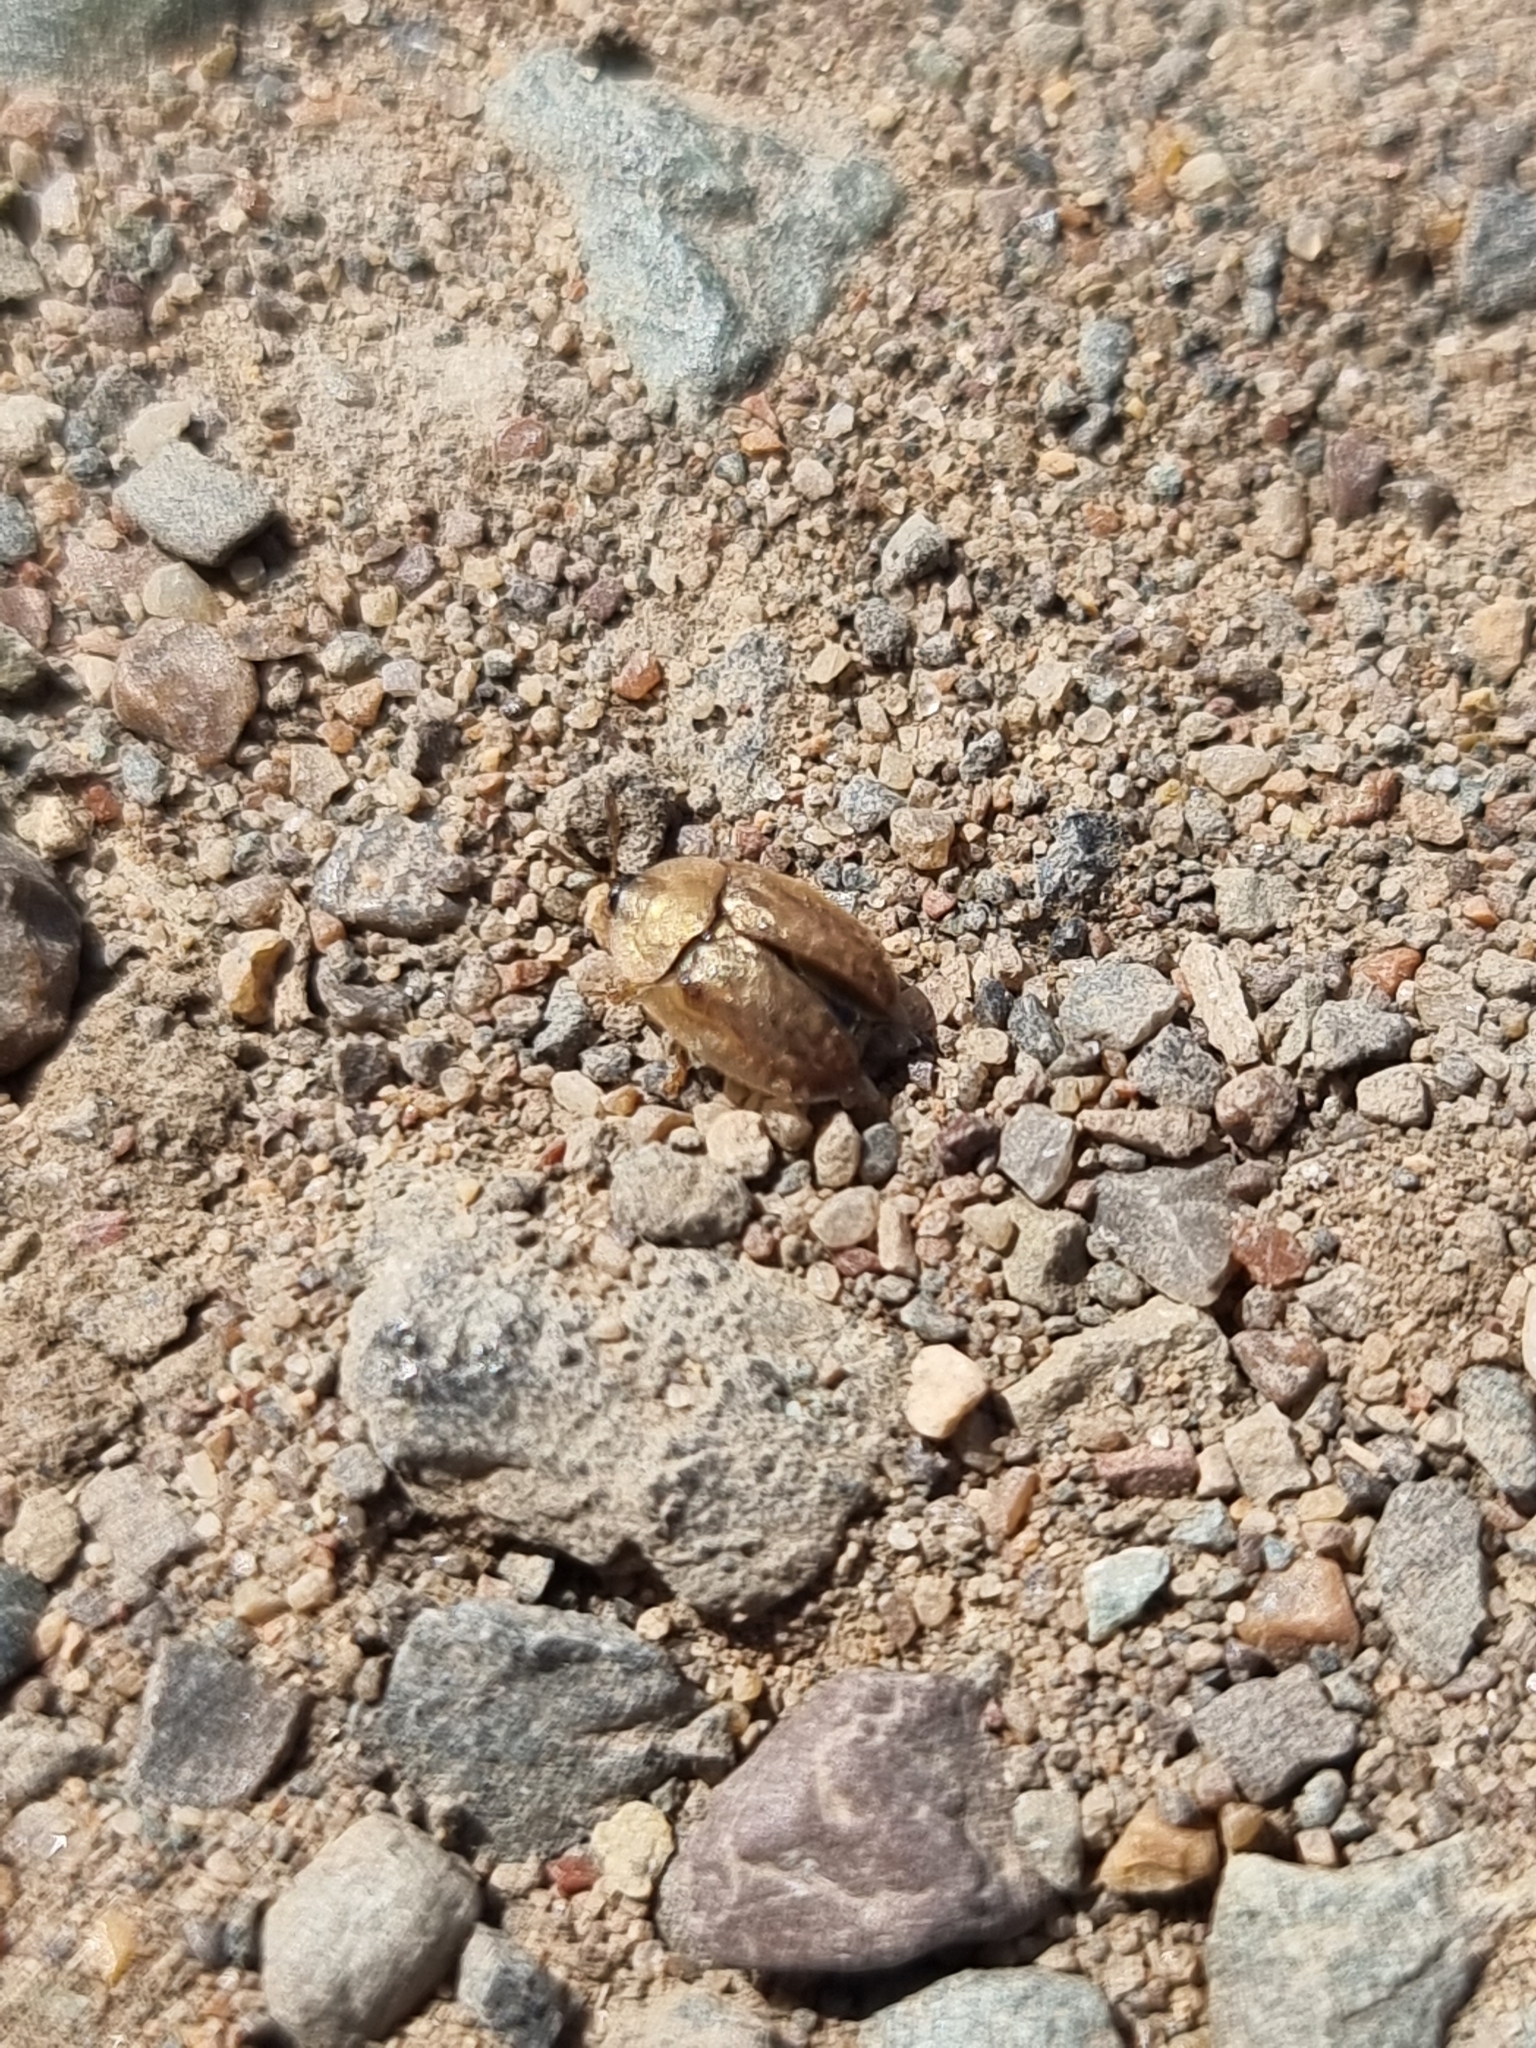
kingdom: Animalia
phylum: Arthropoda
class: Insecta
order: Coleoptera
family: Chrysomelidae
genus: Hypocassida
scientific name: Hypocassida subferruginea
